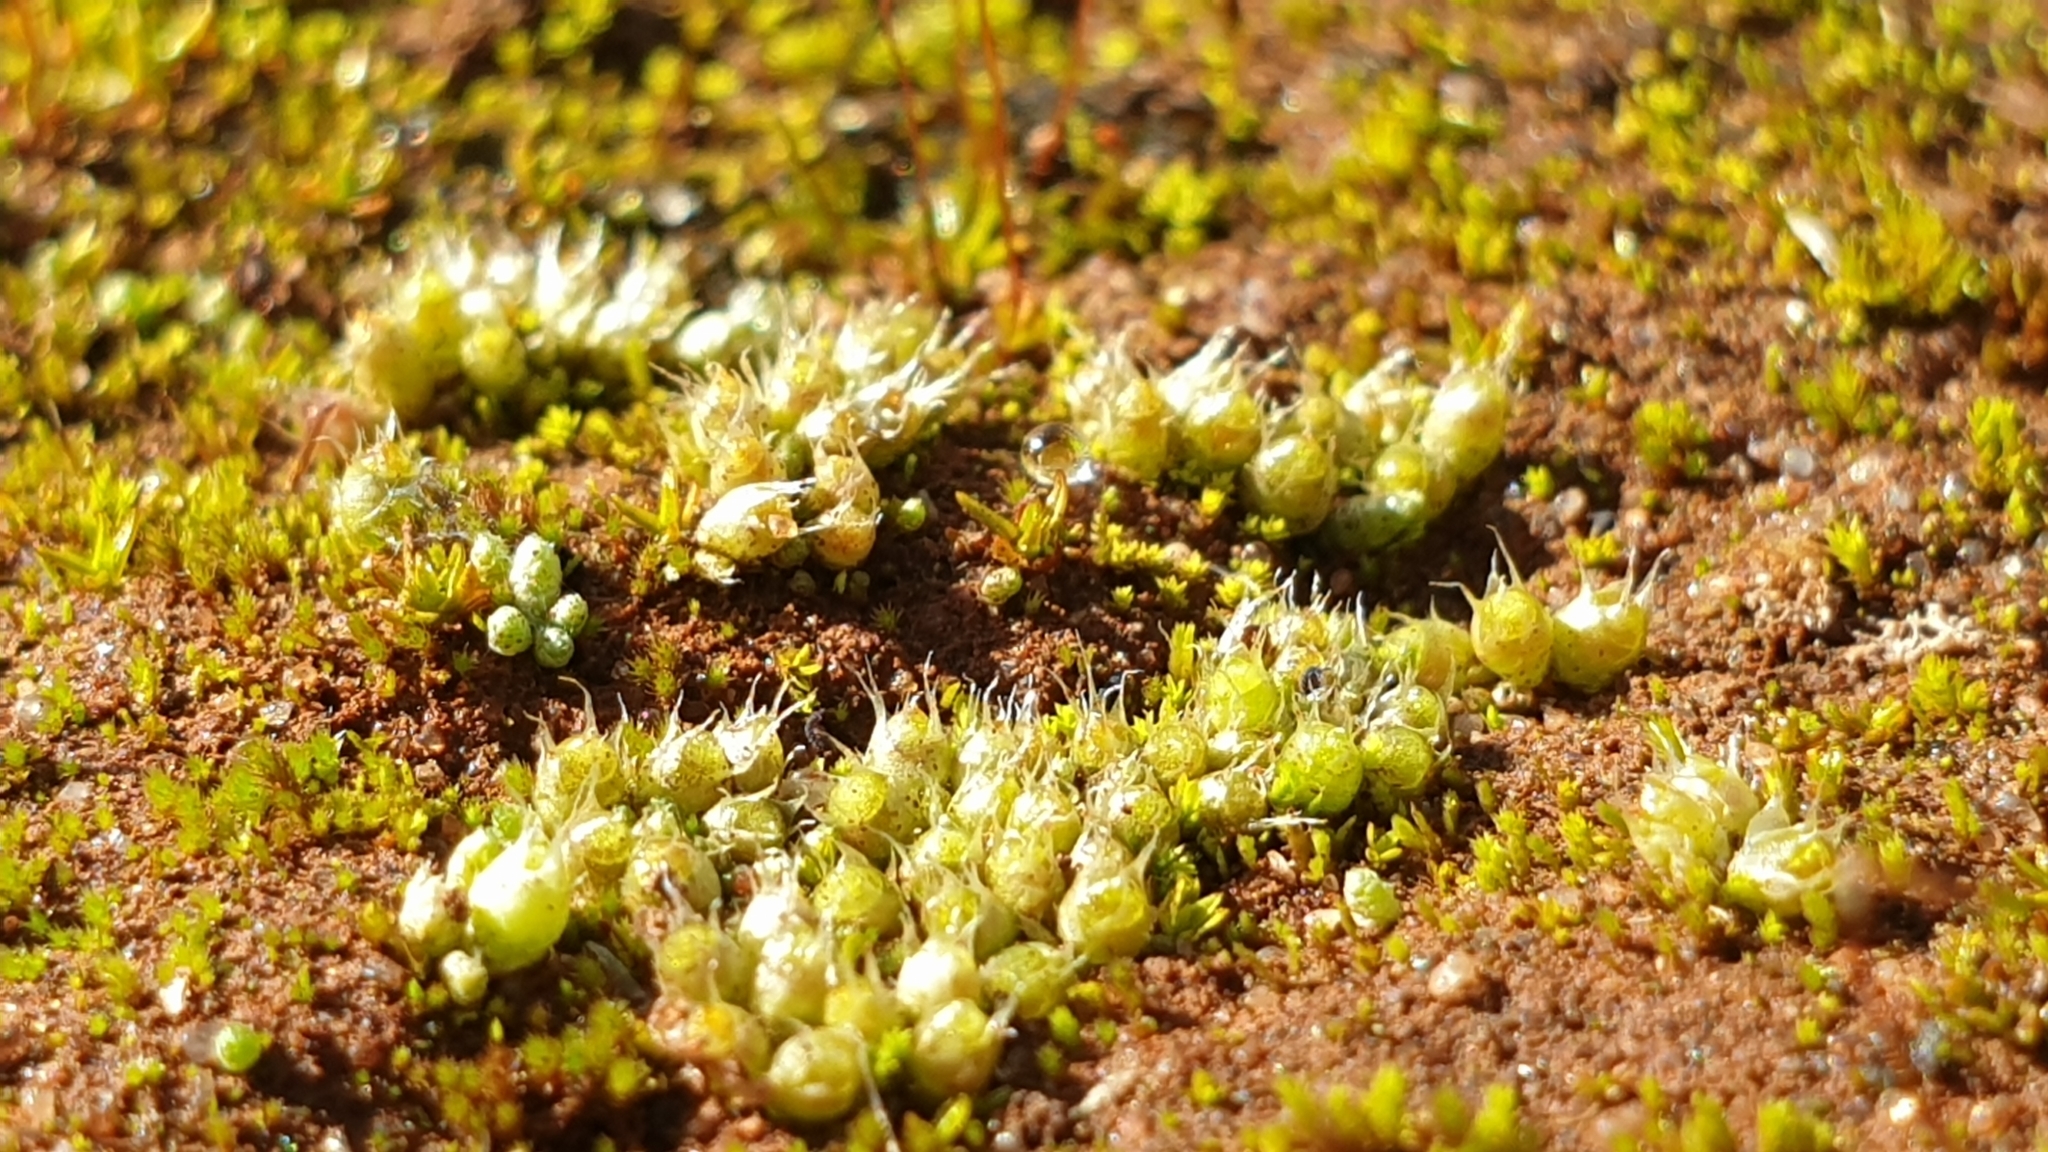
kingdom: Plantae
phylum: Bryophyta
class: Bryopsida
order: Gigaspermales
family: Gigaspermaceae
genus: Gigaspermum
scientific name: Gigaspermum repens
